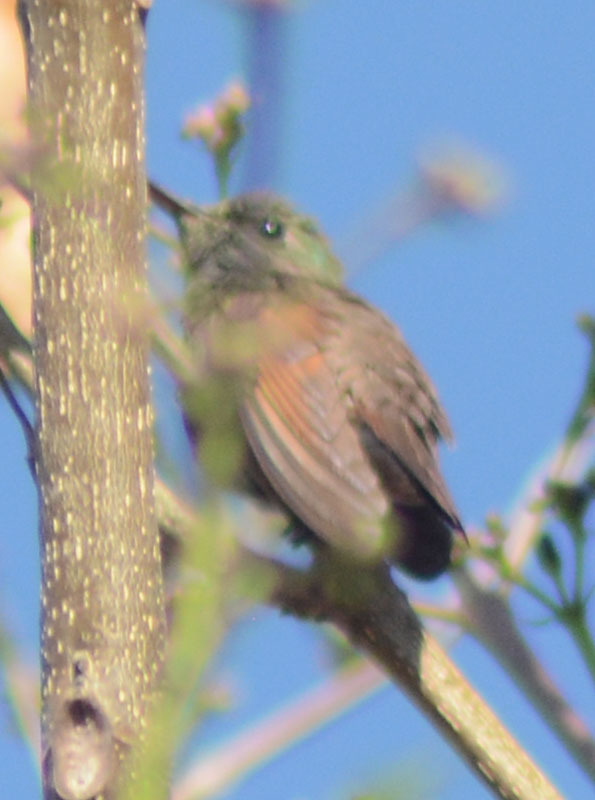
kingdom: Animalia
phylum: Chordata
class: Aves
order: Apodiformes
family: Trochilidae
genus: Saucerottia
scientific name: Saucerottia beryllina
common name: Berylline hummingbird
